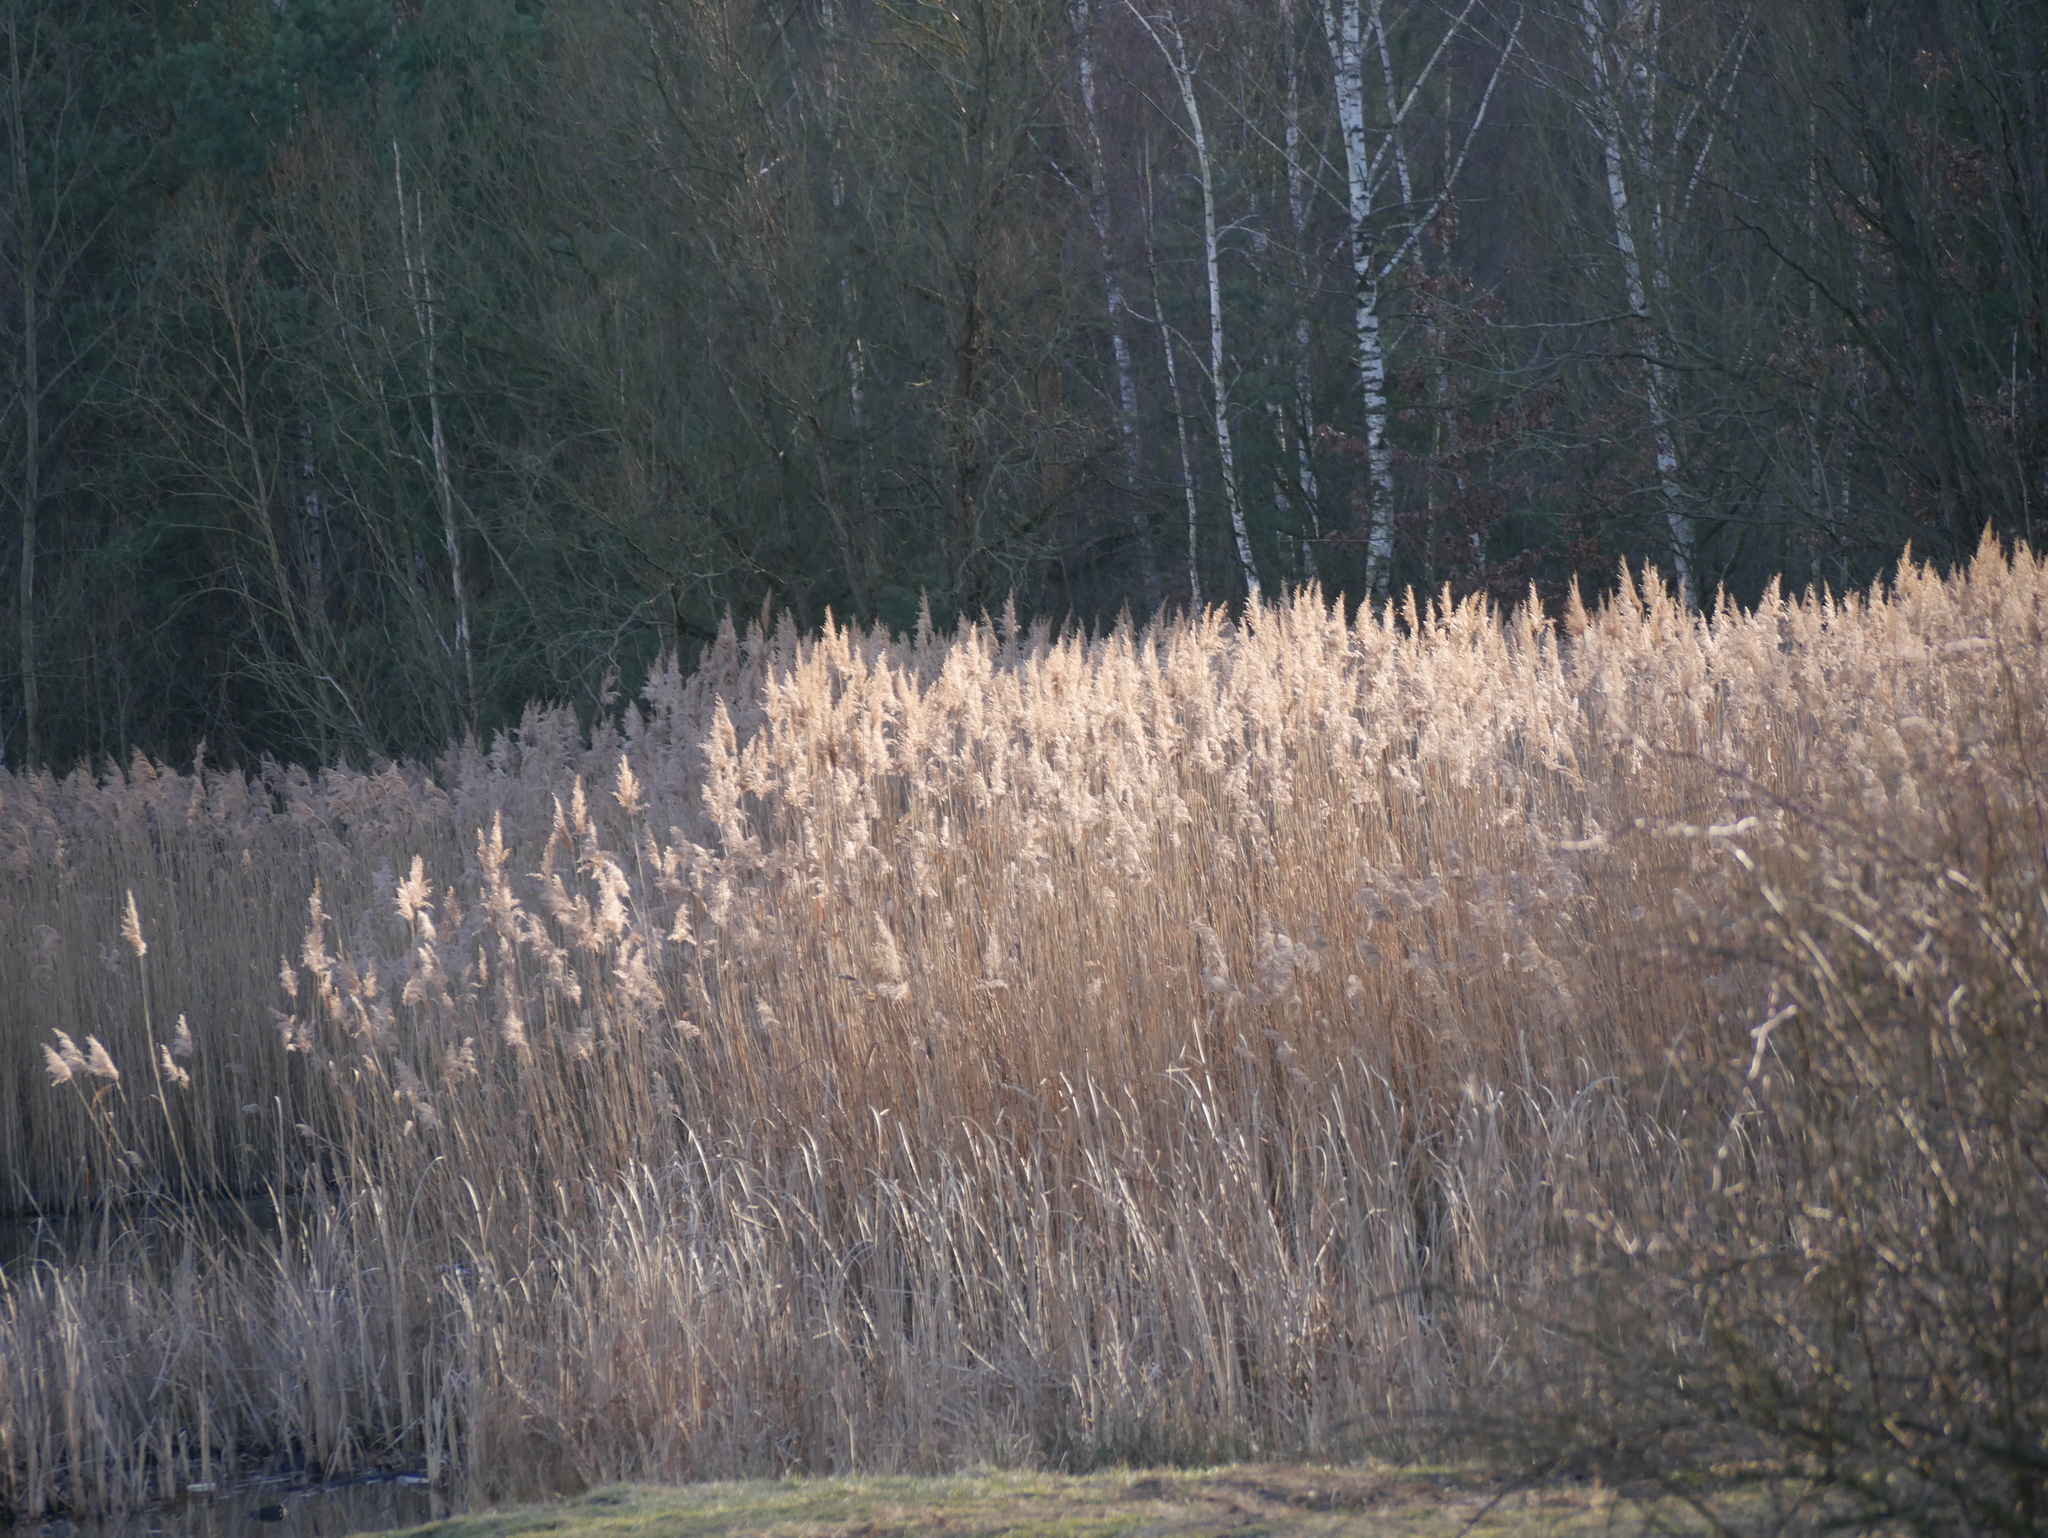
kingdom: Plantae
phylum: Tracheophyta
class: Liliopsida
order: Poales
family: Poaceae
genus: Phragmites
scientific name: Phragmites australis
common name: Common reed
